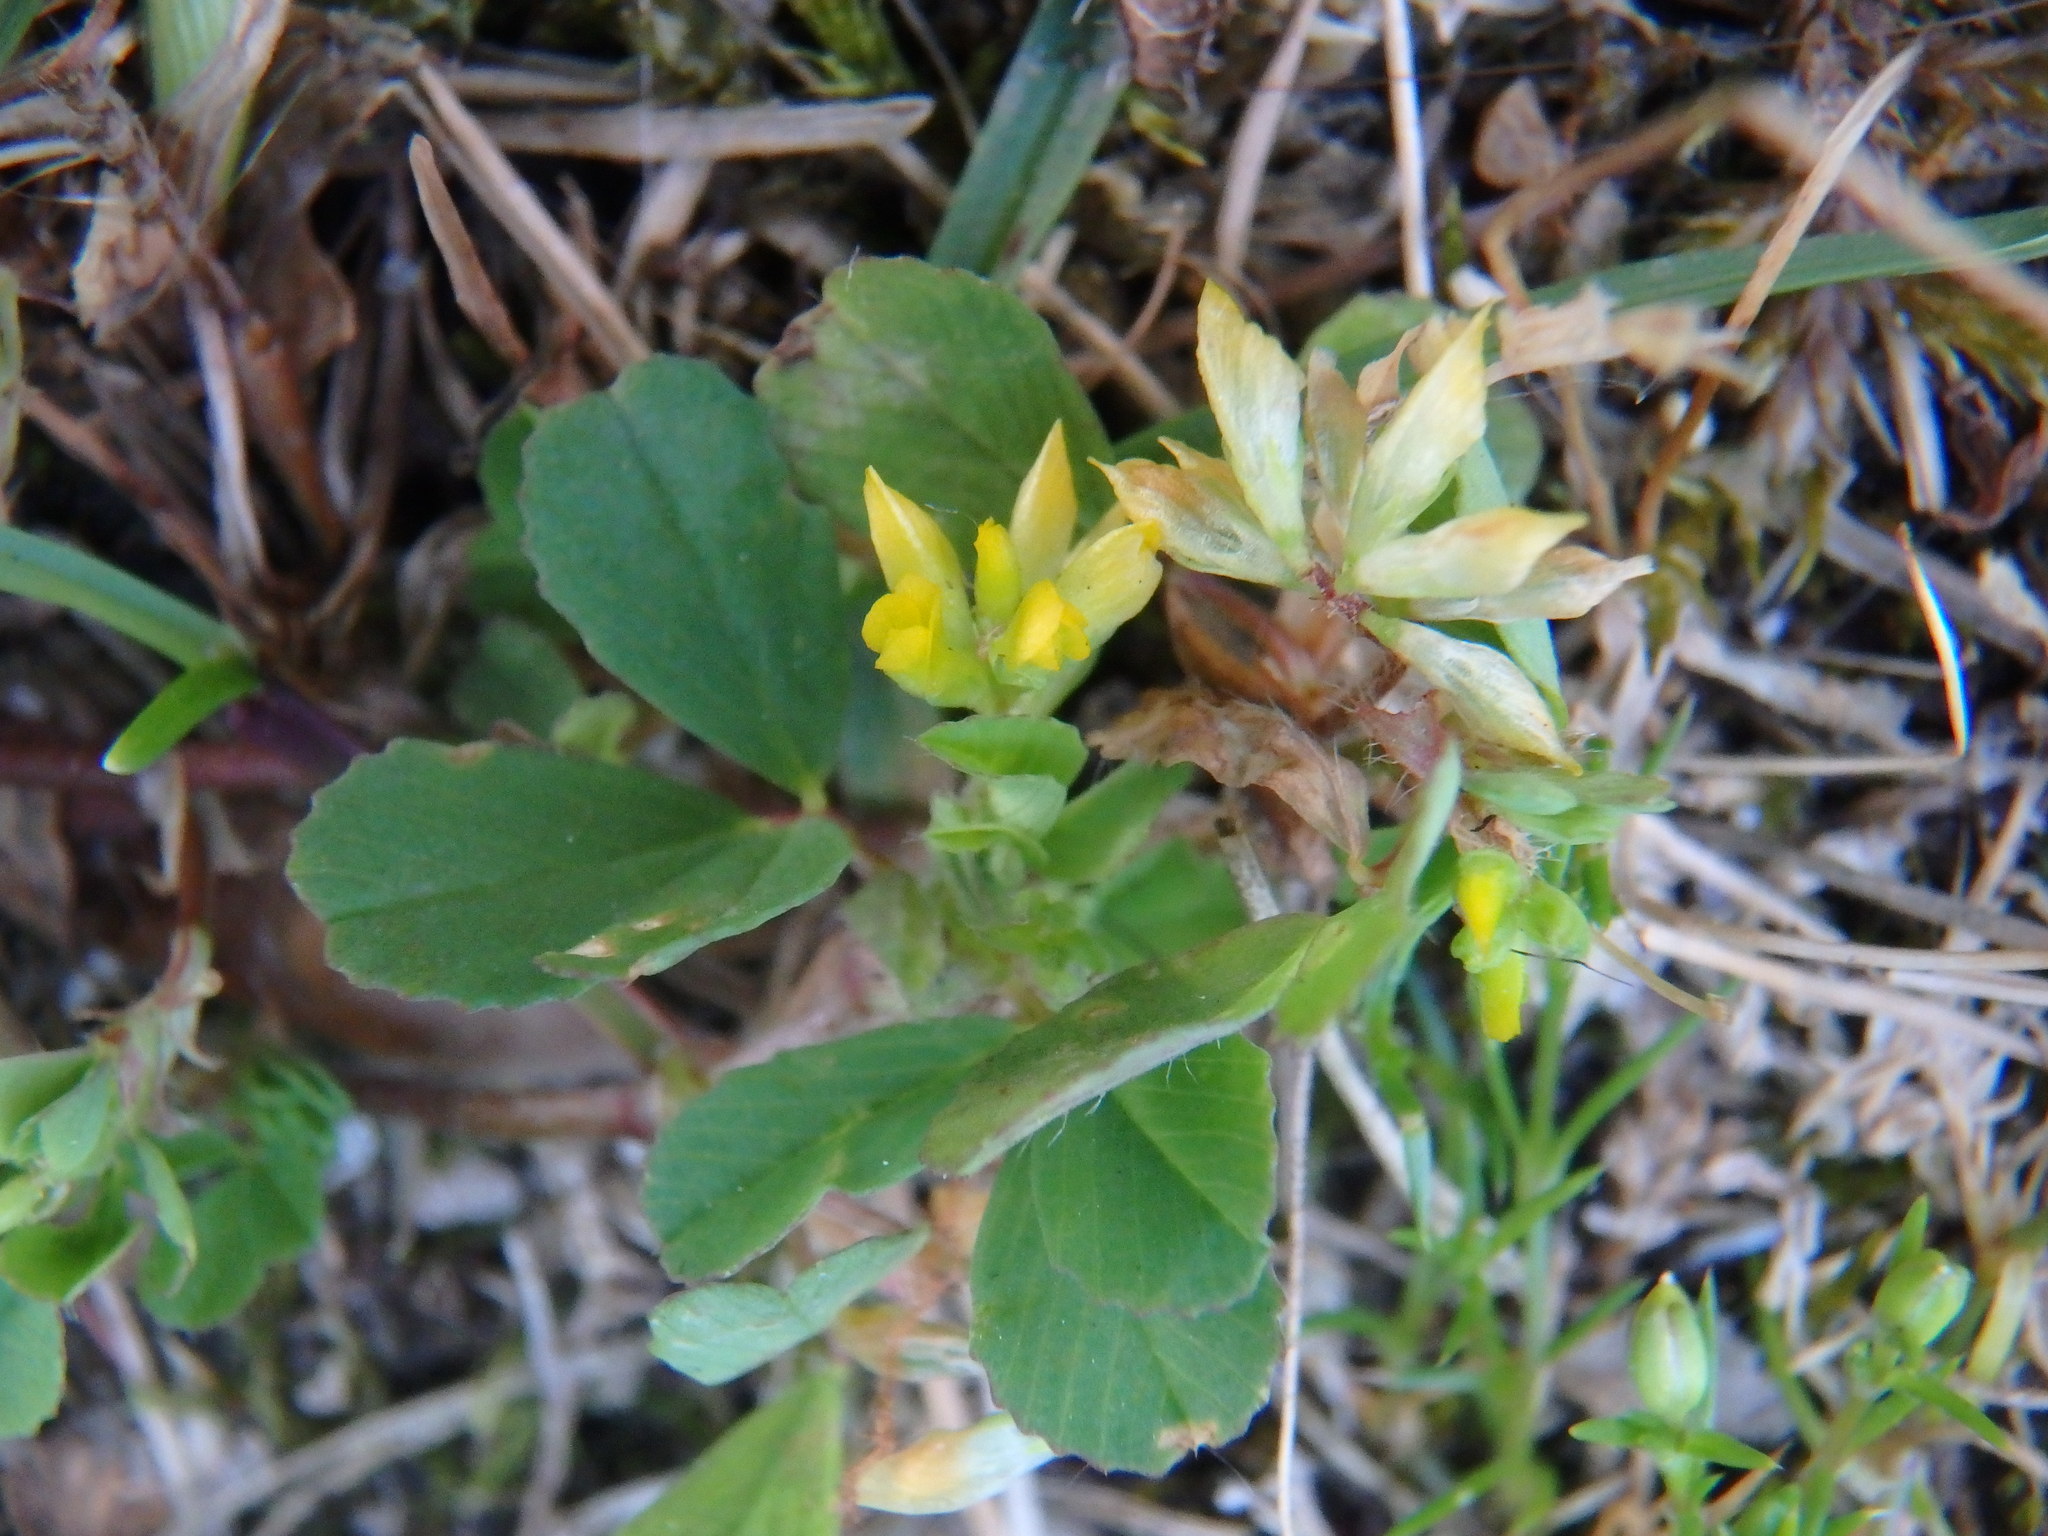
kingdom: Plantae
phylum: Tracheophyta
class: Magnoliopsida
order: Fabales
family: Fabaceae
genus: Trifolium
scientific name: Trifolium dubium
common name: Suckling clover
